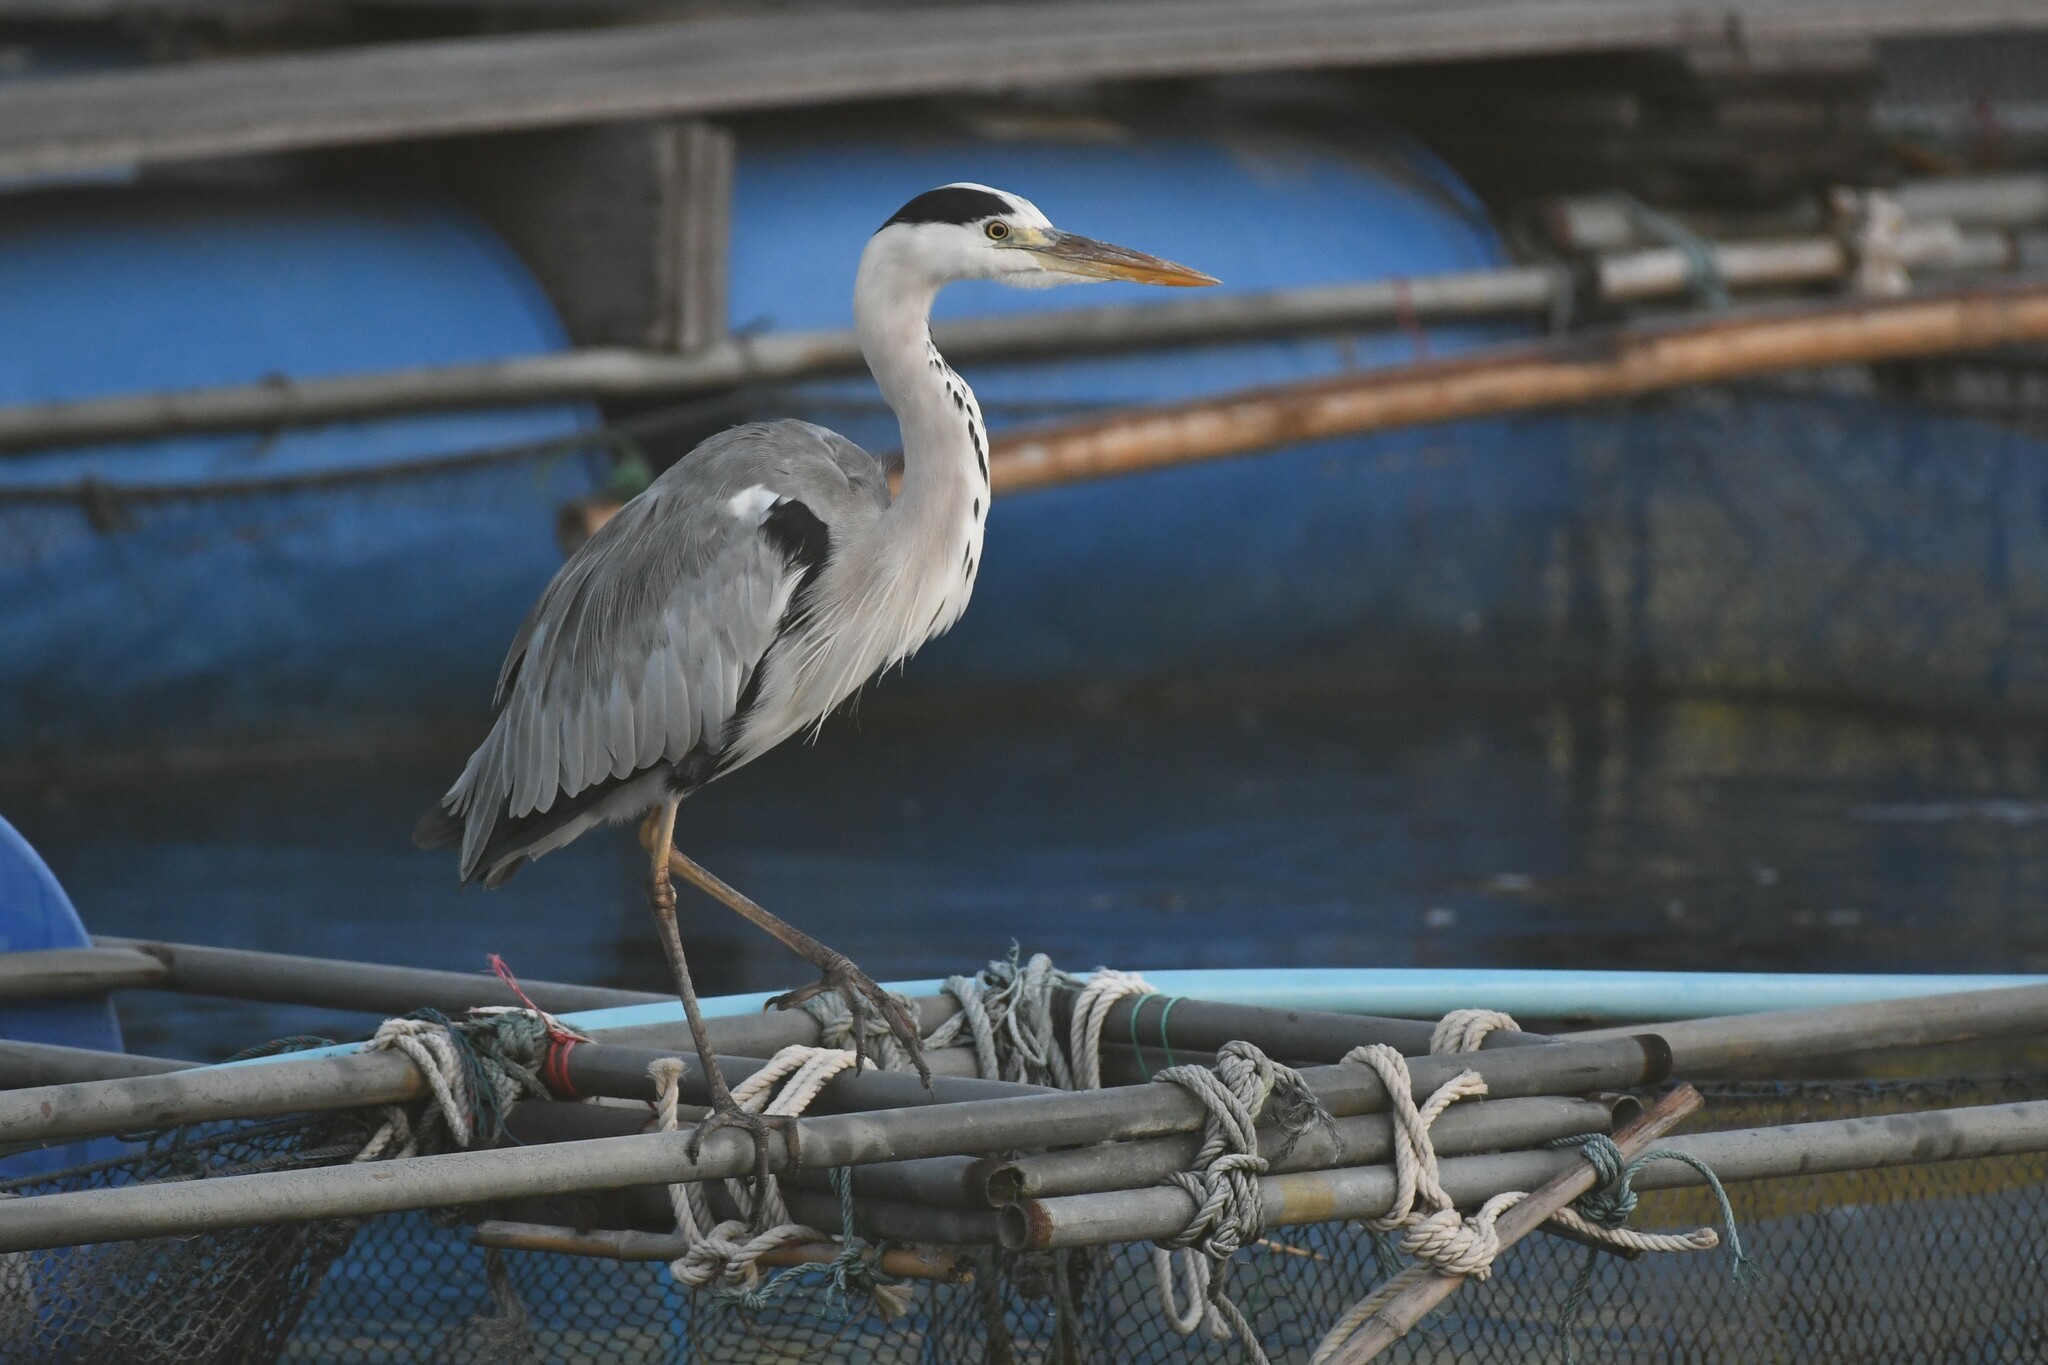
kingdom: Animalia
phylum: Chordata
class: Aves
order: Pelecaniformes
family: Ardeidae
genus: Ardea
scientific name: Ardea cinerea
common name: Grey heron
